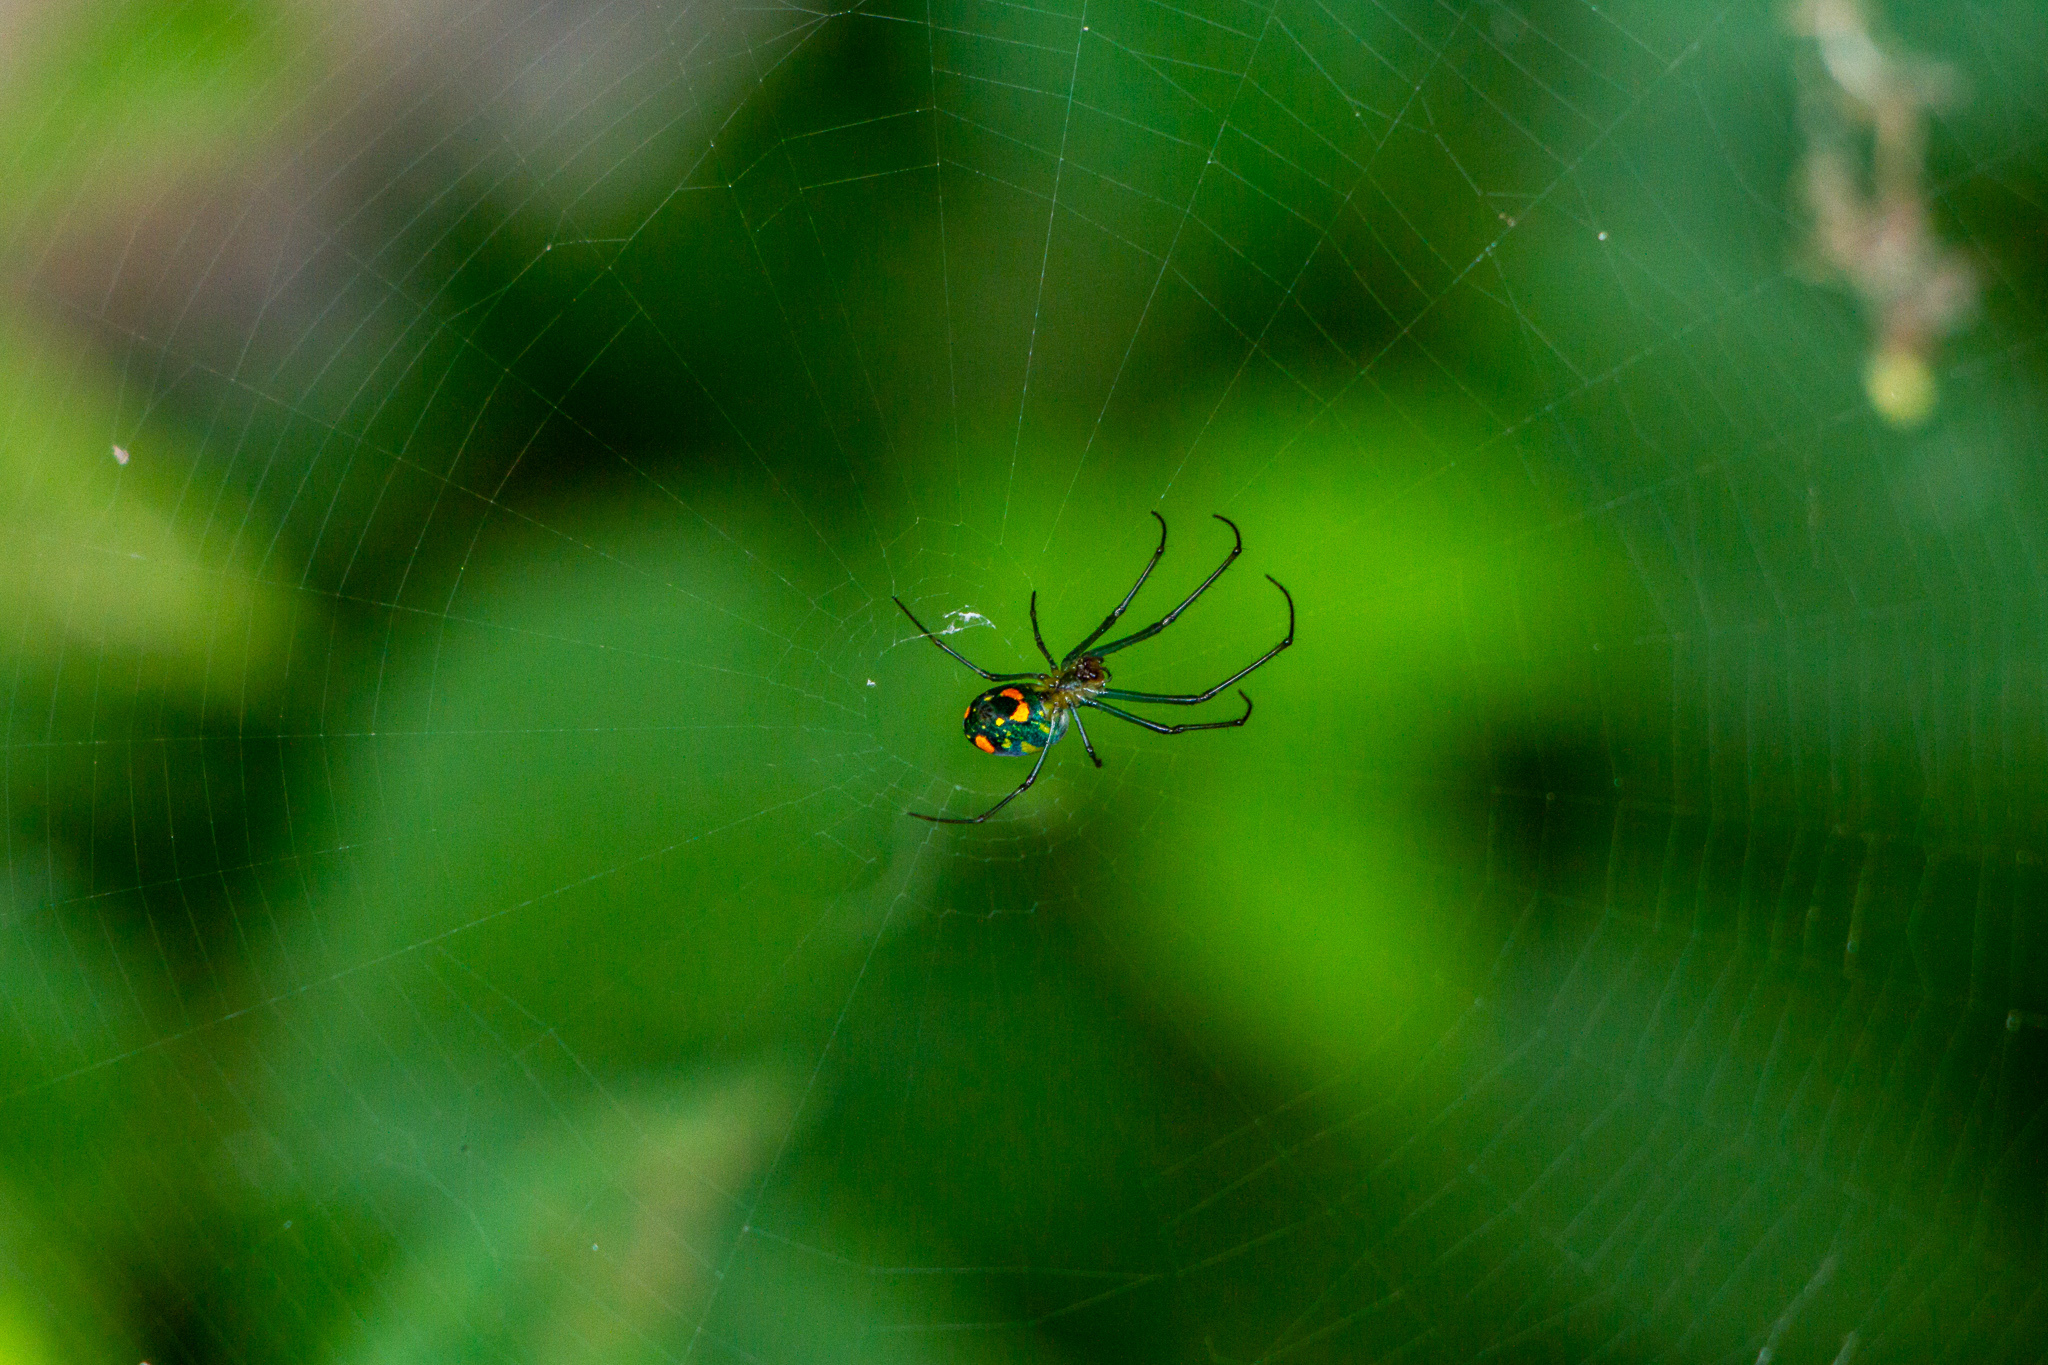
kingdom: Animalia
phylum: Arthropoda
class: Arachnida
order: Araneae
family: Tetragnathidae
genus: Leucauge
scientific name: Leucauge argyrobapta
